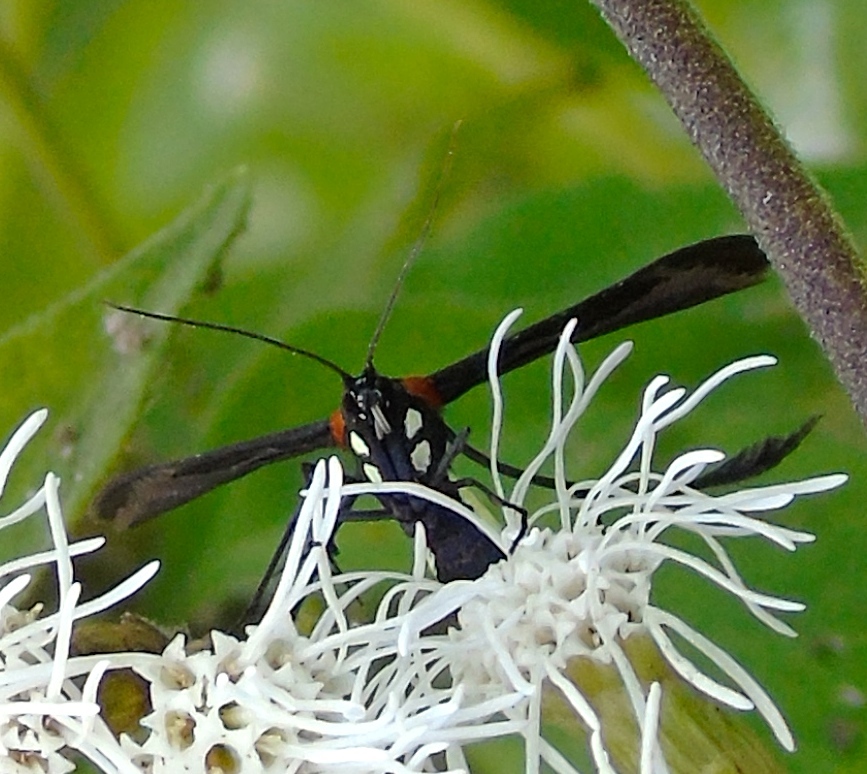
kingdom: Animalia
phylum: Arthropoda
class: Insecta
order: Lepidoptera
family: Pterophoridae
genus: Hellinsia
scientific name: Hellinsia chamelai
